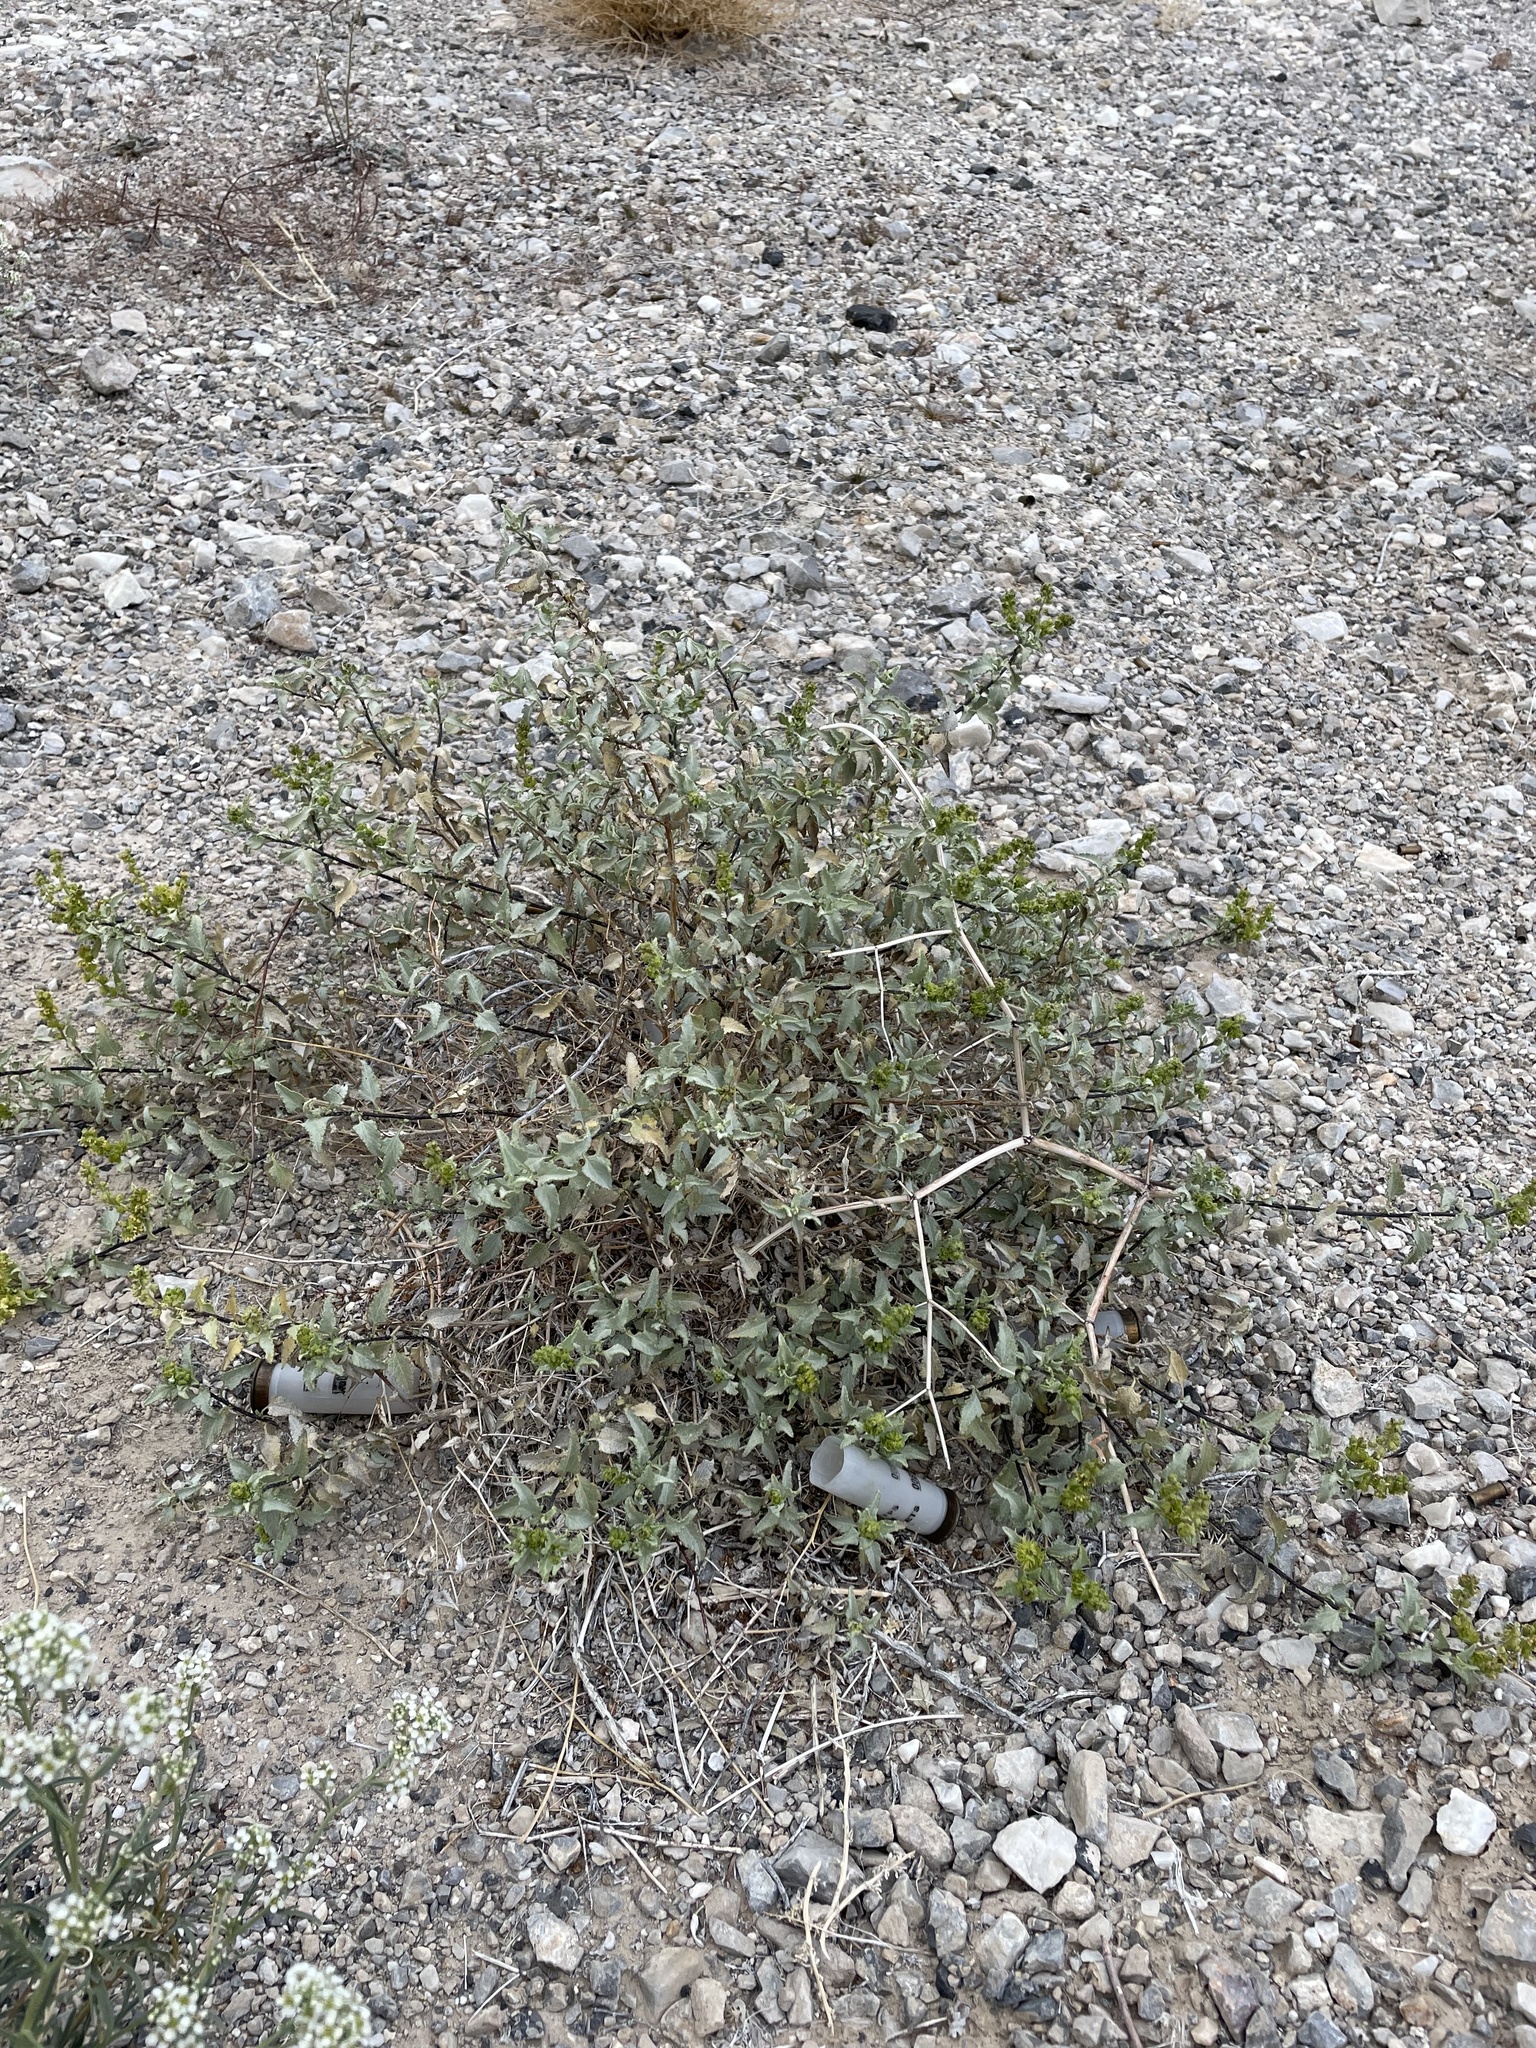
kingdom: Plantae
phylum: Tracheophyta
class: Magnoliopsida
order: Asterales
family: Asteraceae
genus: Ambrosia
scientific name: Ambrosia deltoidea
